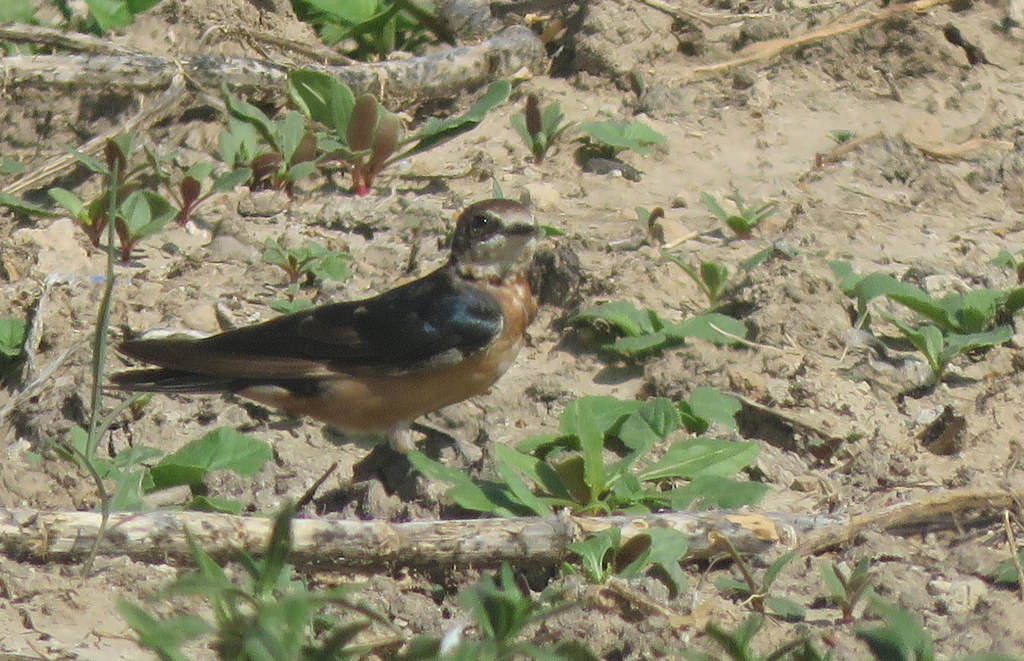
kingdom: Animalia
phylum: Chordata
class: Aves
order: Passeriformes
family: Hirundinidae
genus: Hirundo
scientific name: Hirundo rustica
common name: Barn swallow
